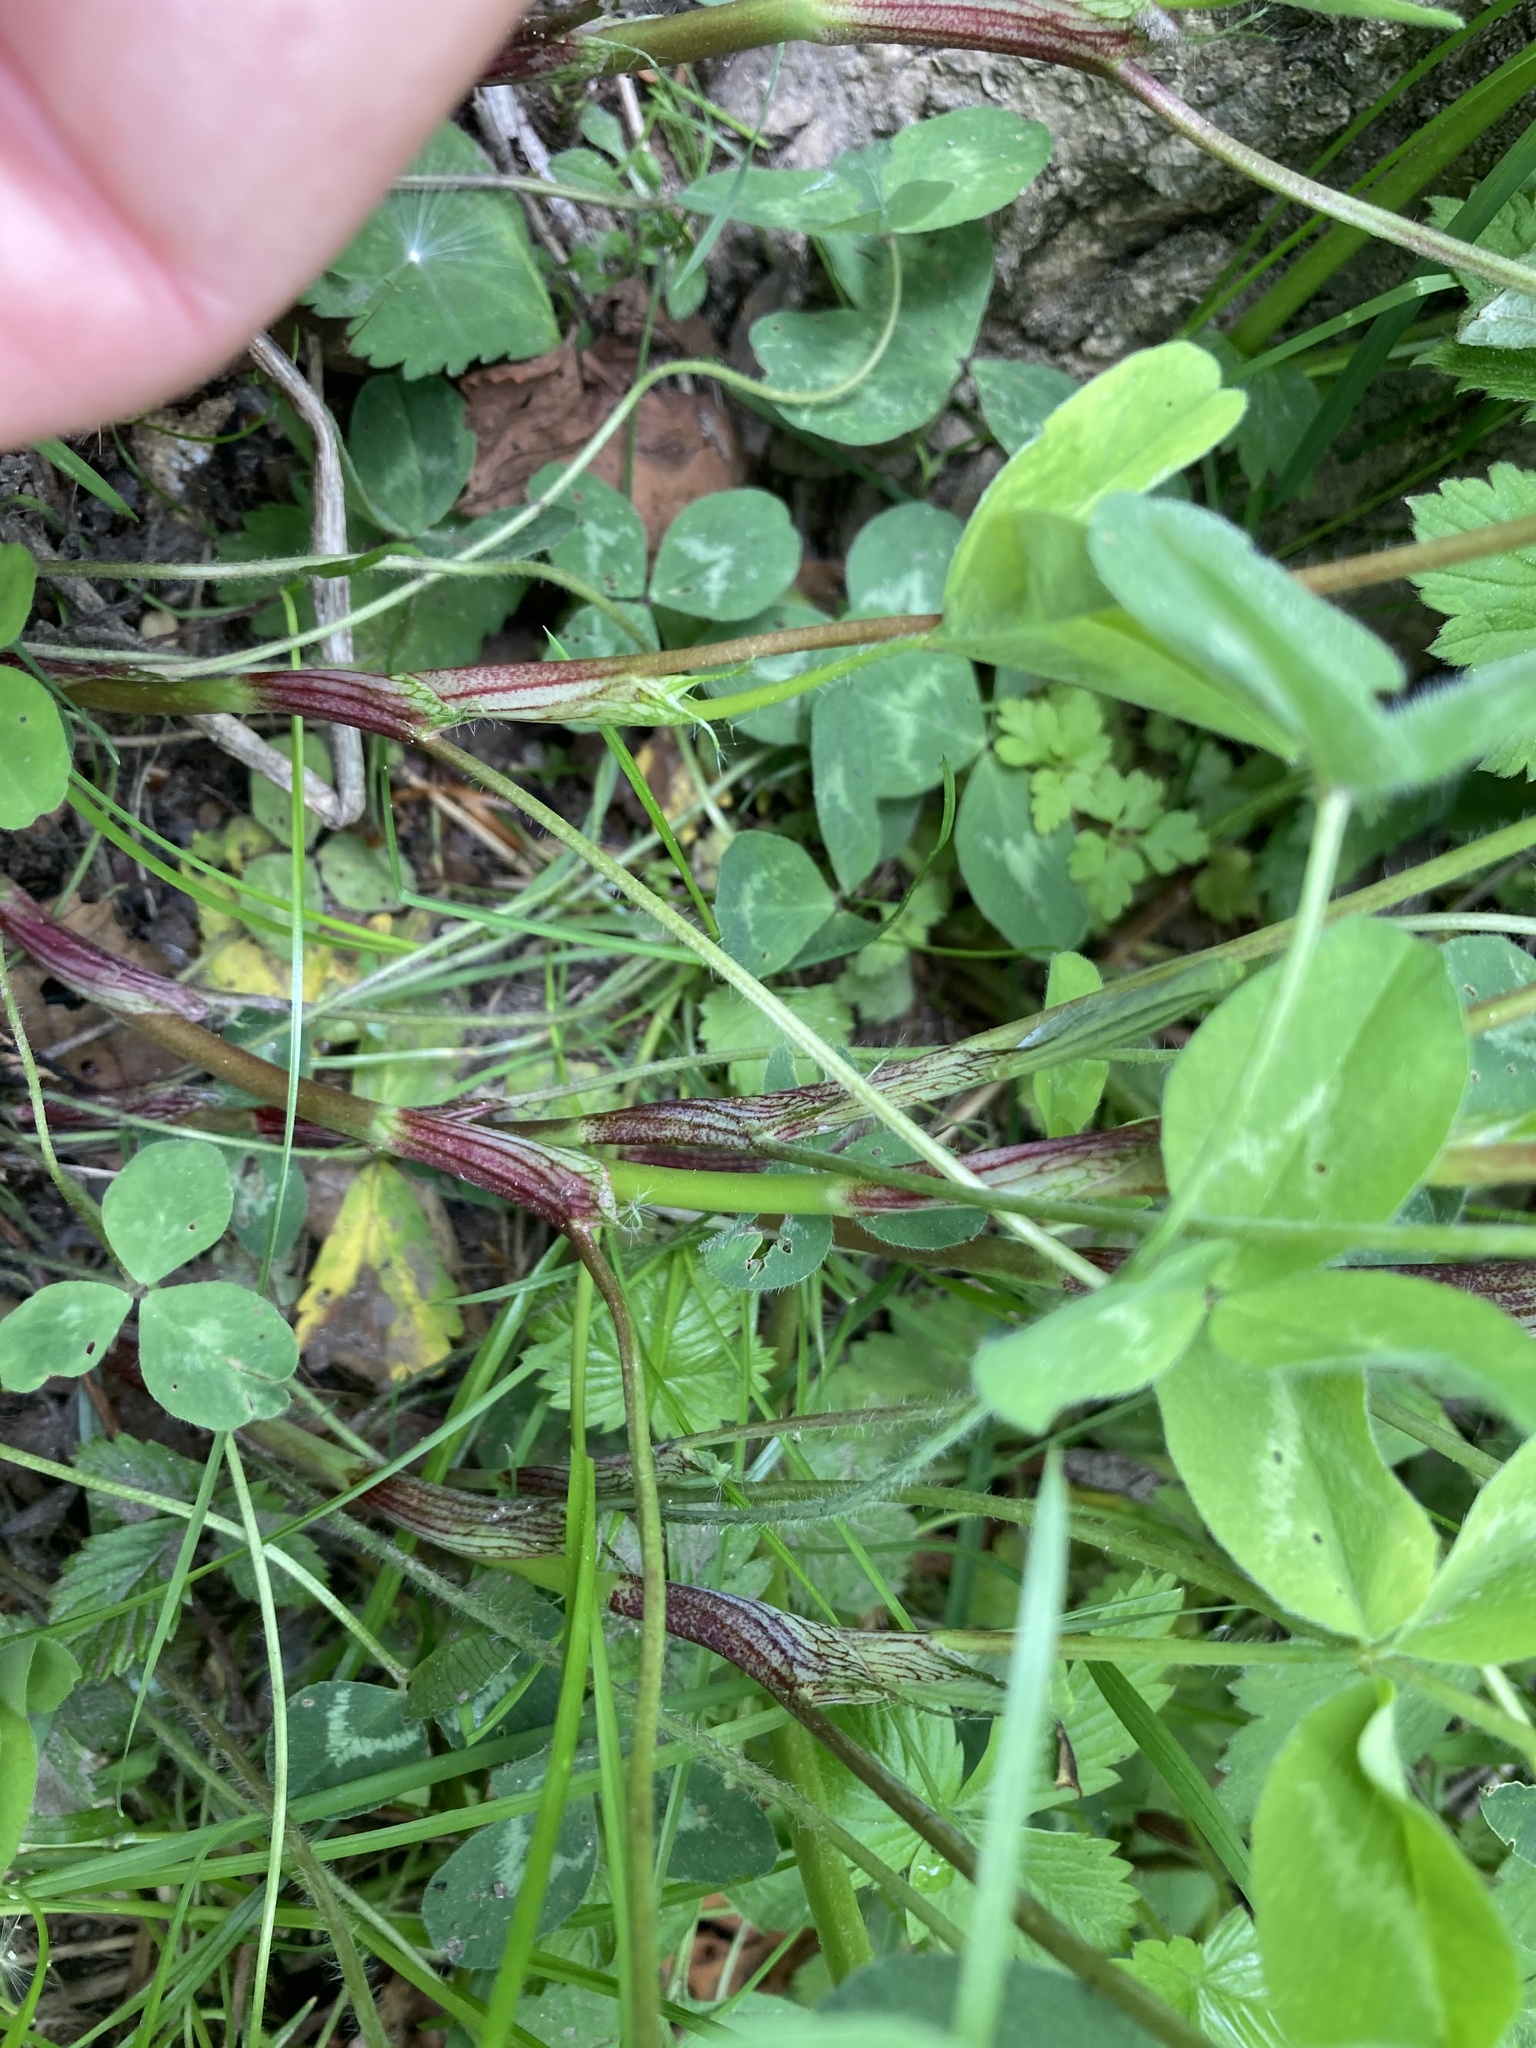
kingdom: Plantae
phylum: Tracheophyta
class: Magnoliopsida
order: Fabales
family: Fabaceae
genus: Trifolium
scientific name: Trifolium pratense
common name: Red clover
